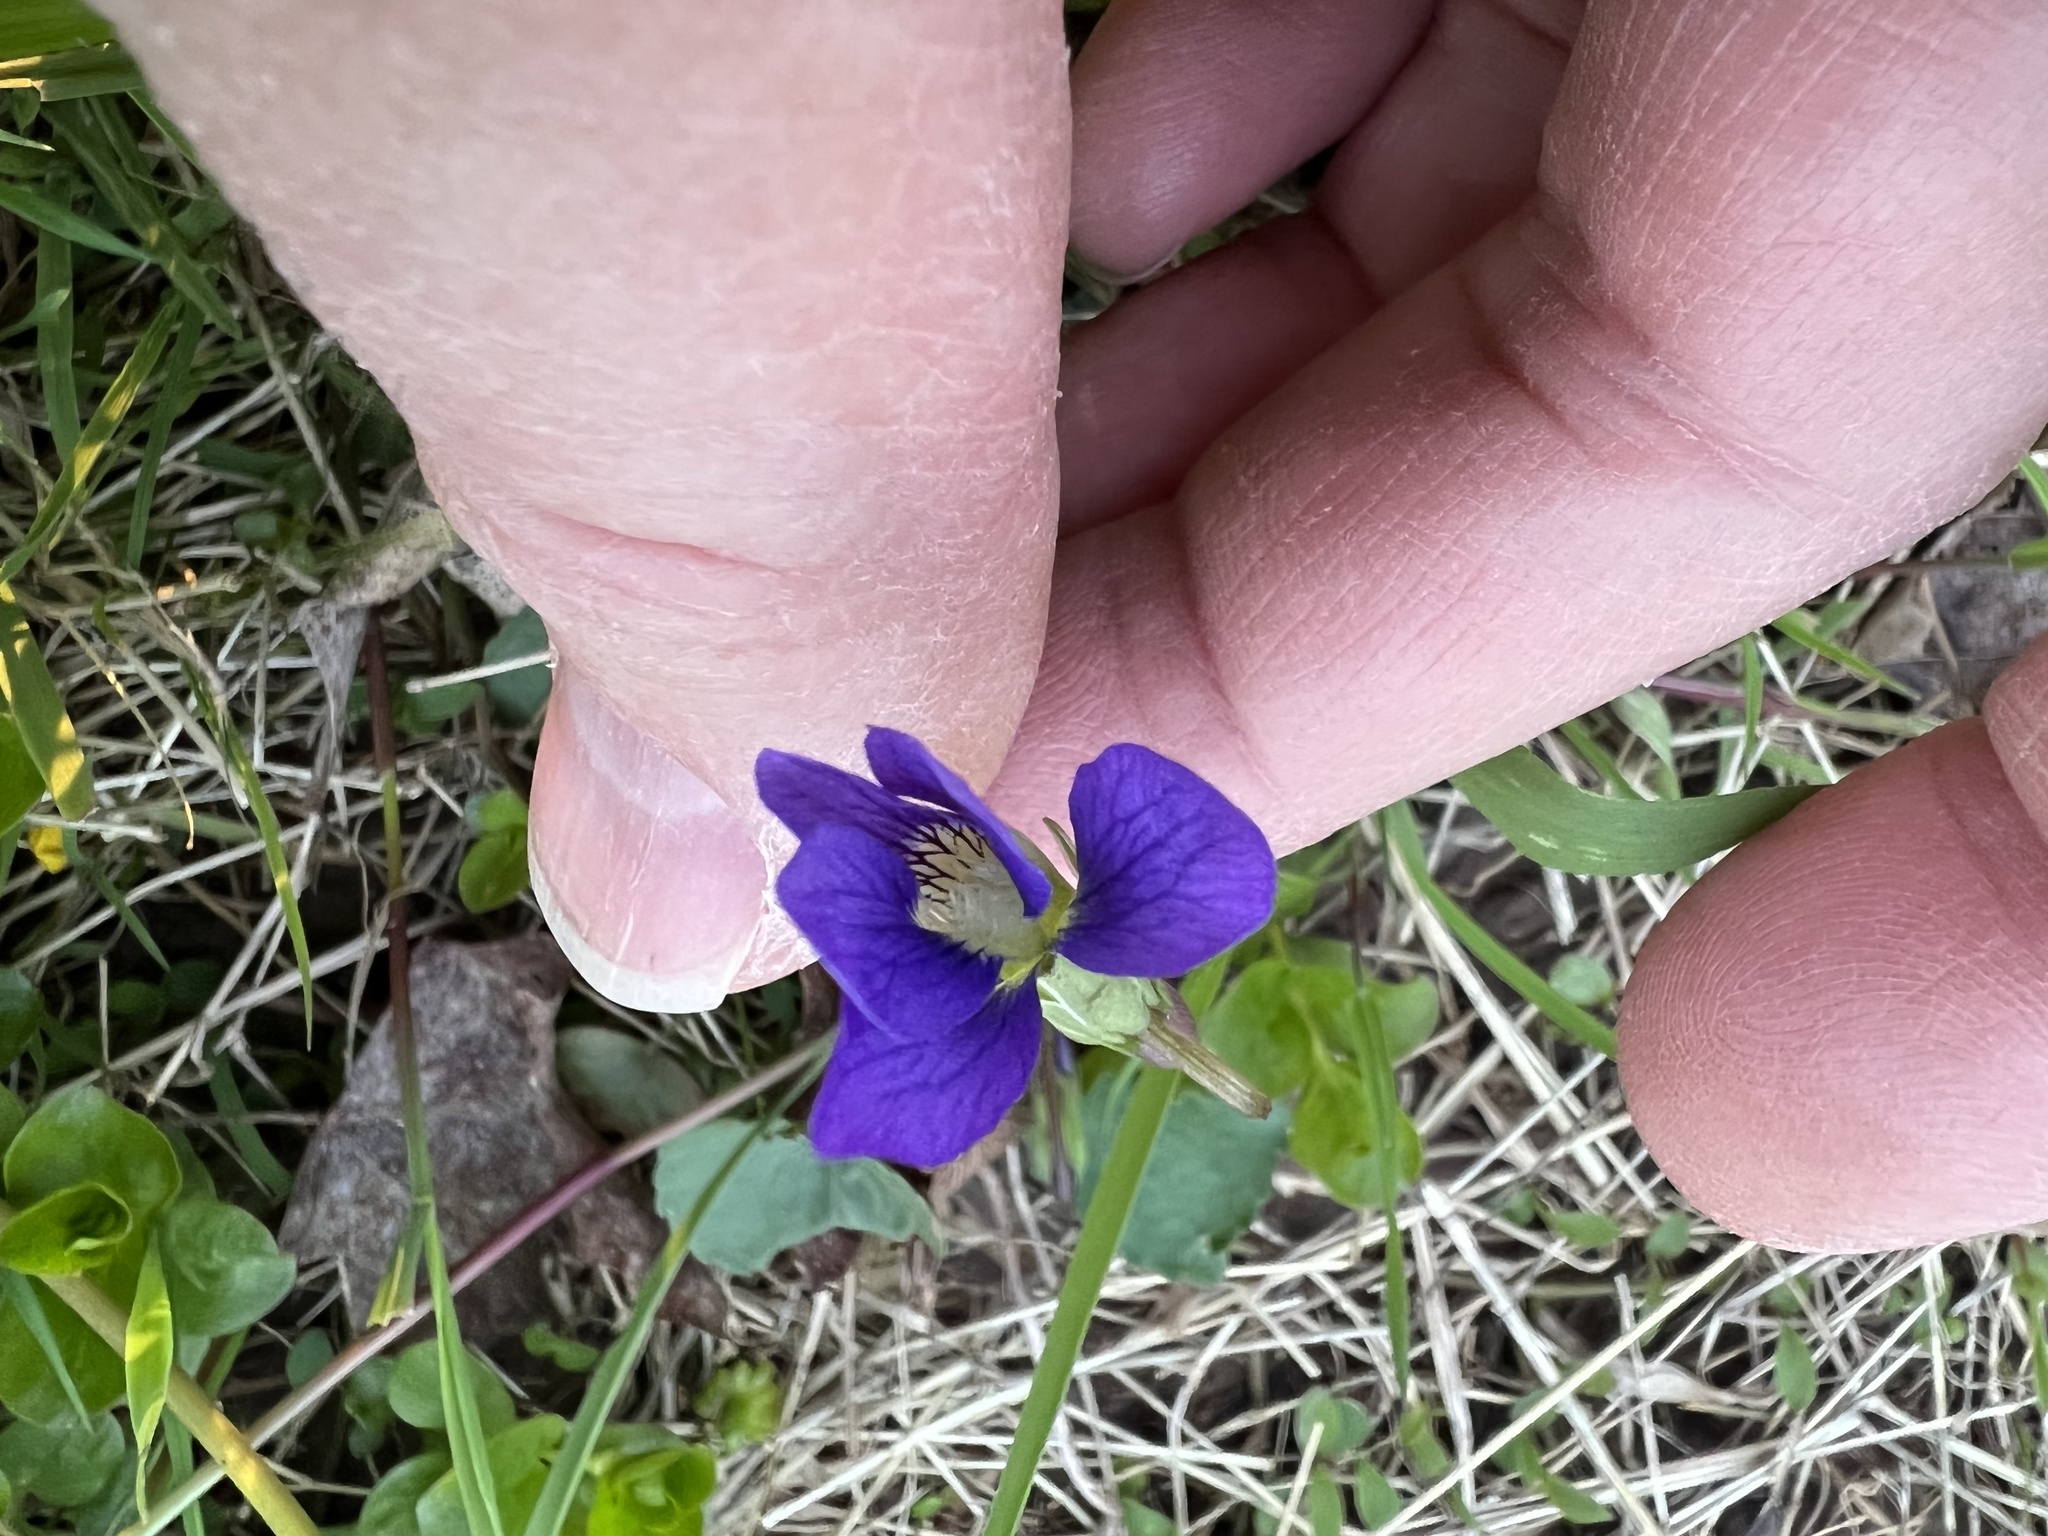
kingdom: Plantae
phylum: Tracheophyta
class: Magnoliopsida
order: Malpighiales
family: Violaceae
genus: Viola
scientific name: Viola sororia
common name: Dooryard violet
